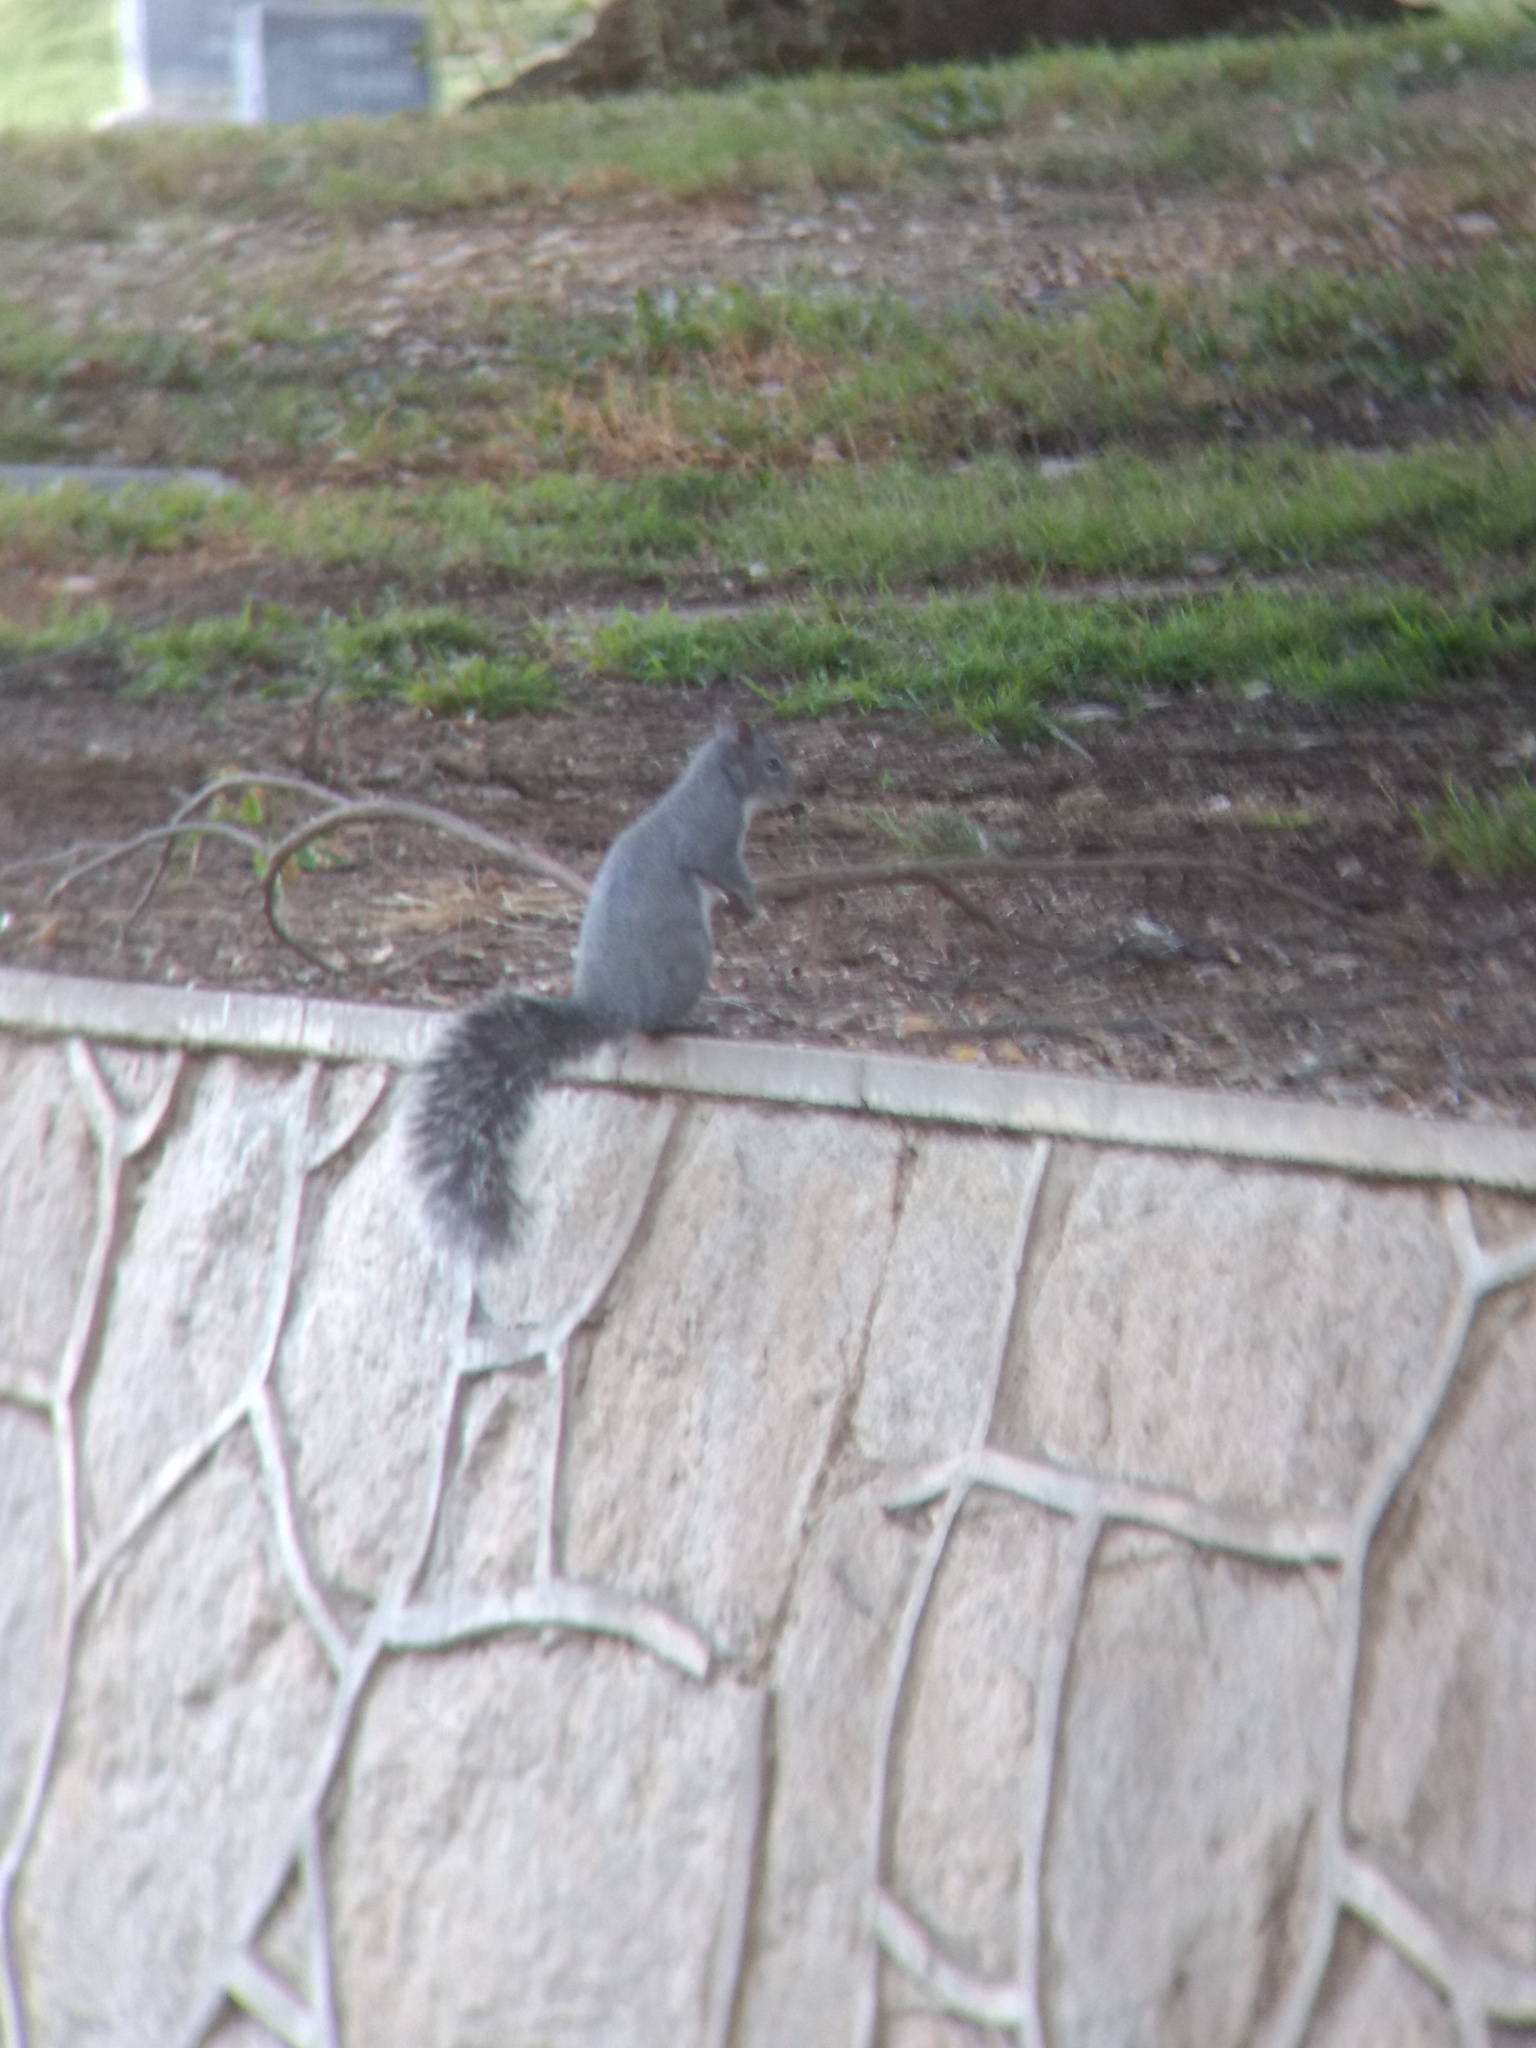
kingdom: Animalia
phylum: Chordata
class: Mammalia
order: Rodentia
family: Sciuridae
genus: Sciurus
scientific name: Sciurus griseus
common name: Western gray squirrel
